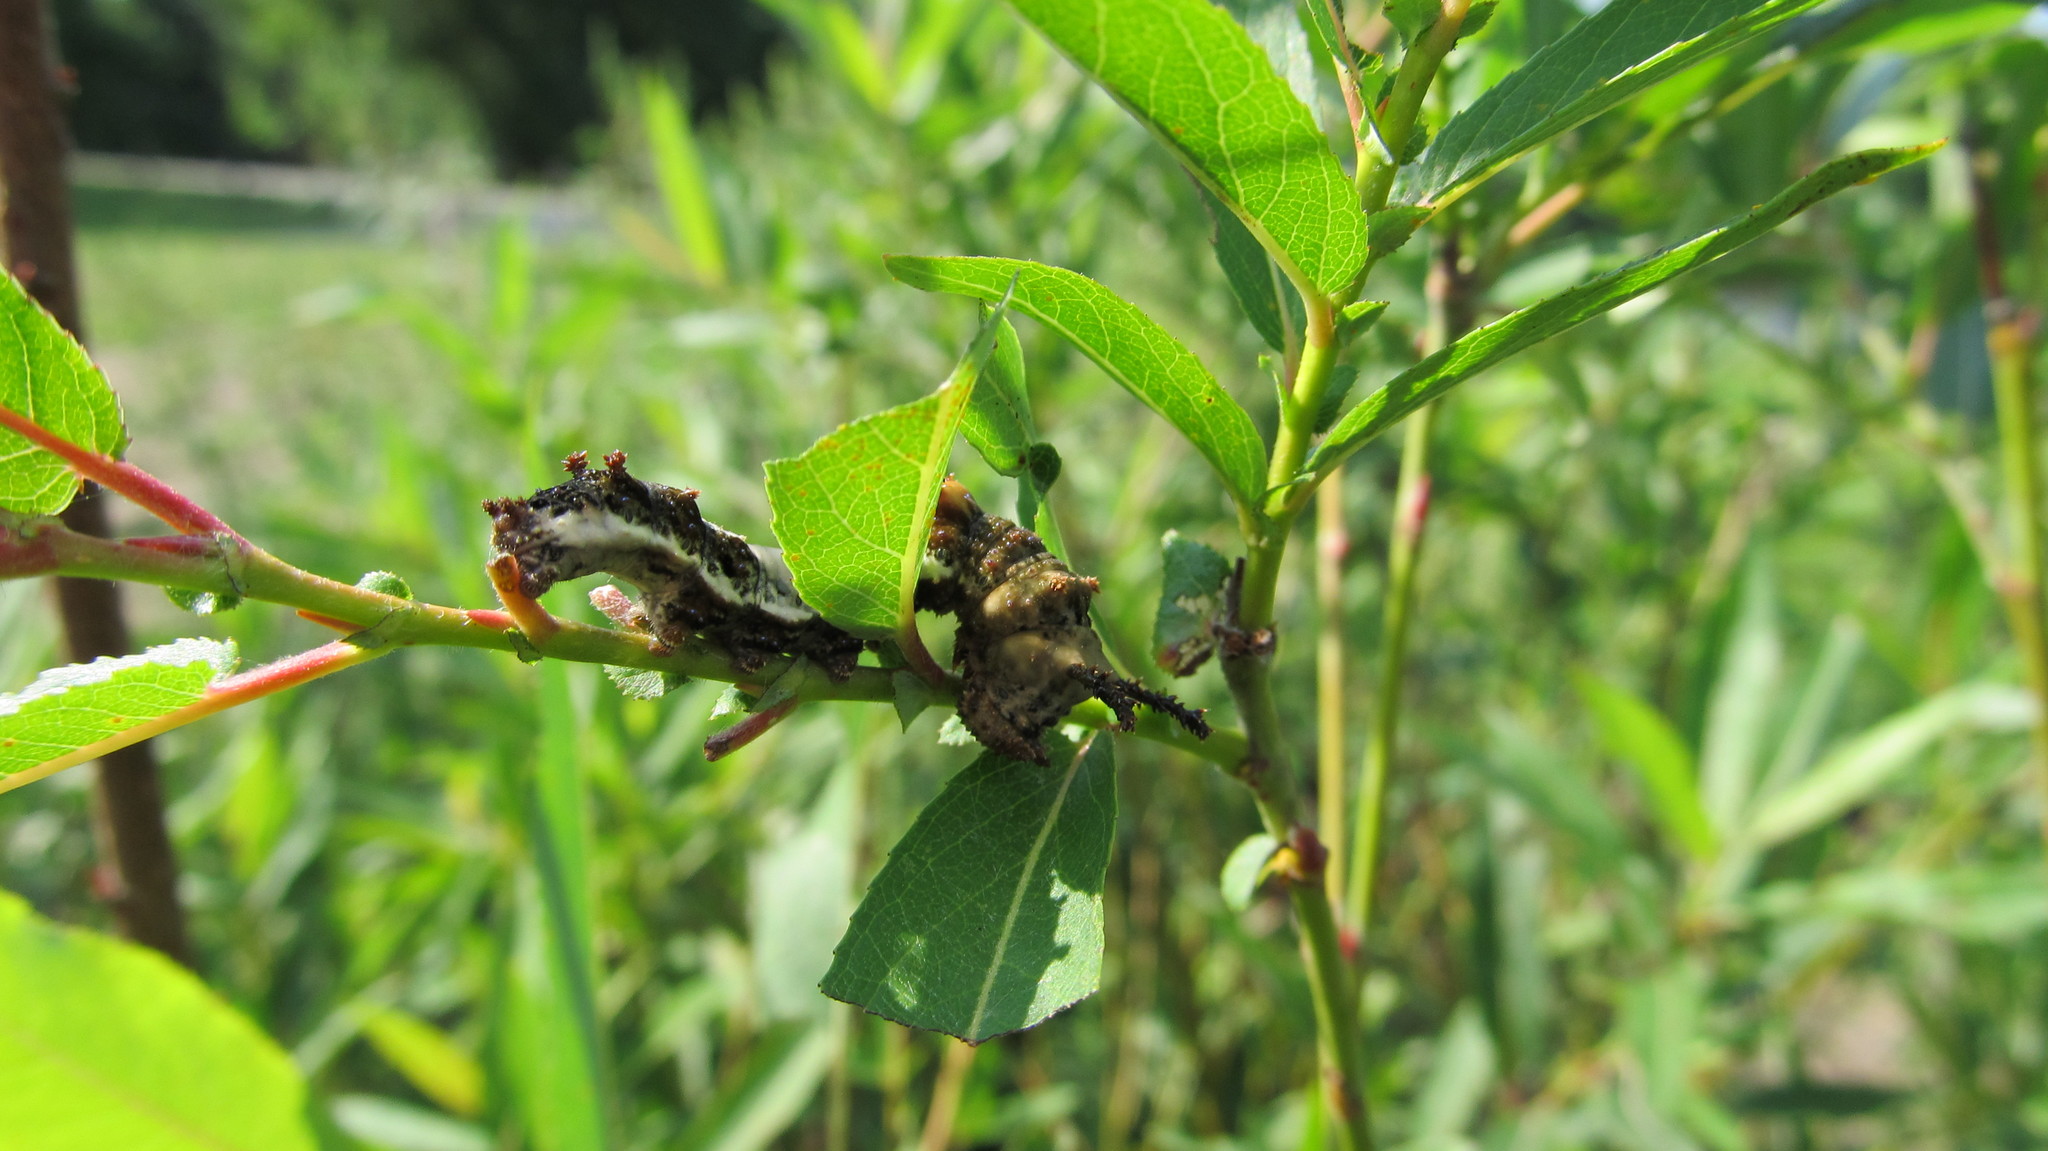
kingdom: Animalia
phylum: Arthropoda
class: Insecta
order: Lepidoptera
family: Nymphalidae
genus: Limenitis
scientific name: Limenitis archippus
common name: Viceroy
